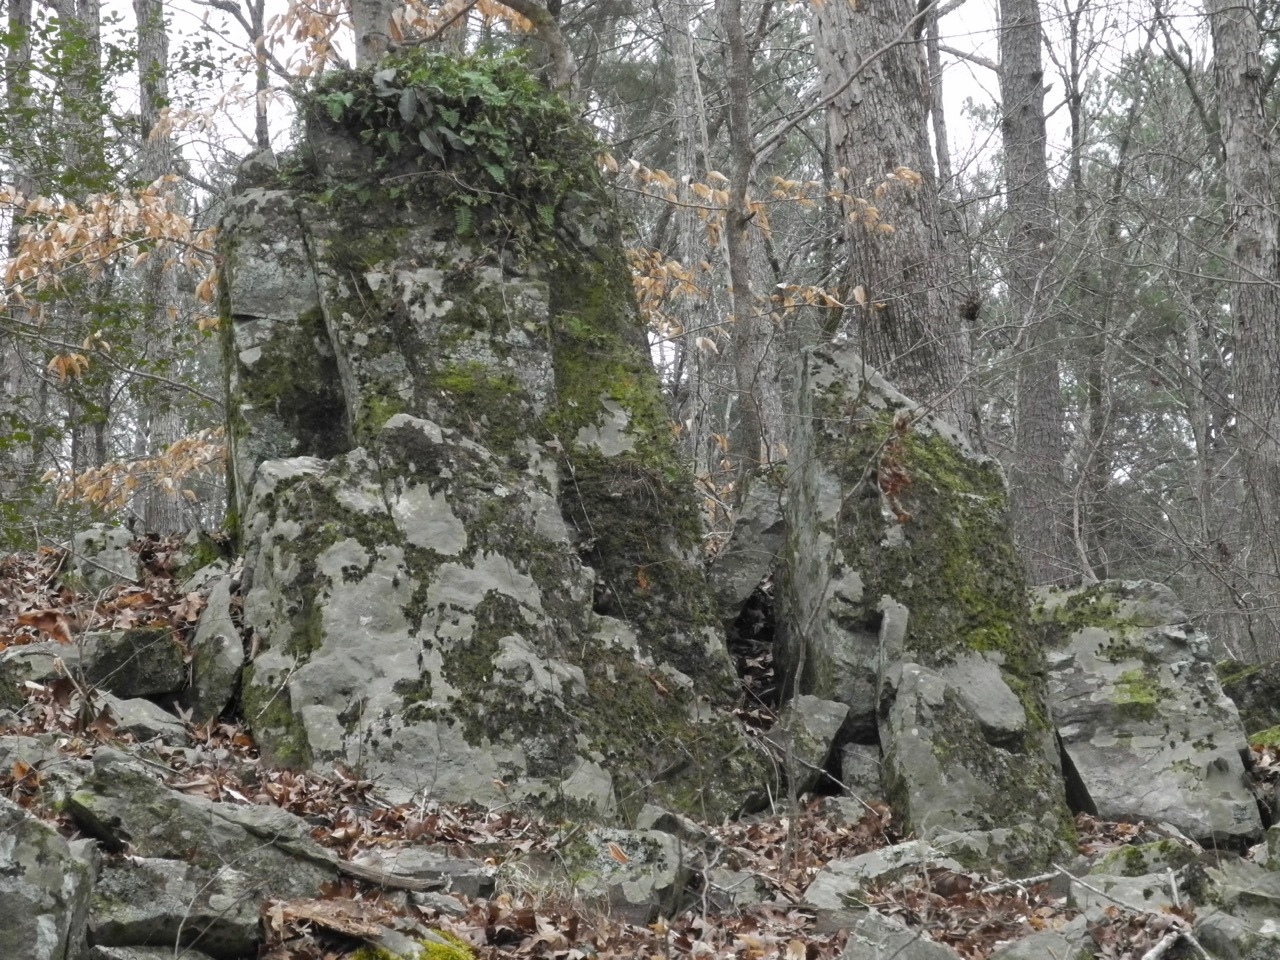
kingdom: Plantae
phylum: Tracheophyta
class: Magnoliopsida
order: Lamiales
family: Bignoniaceae
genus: Bignonia
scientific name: Bignonia capreolata
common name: Crossvine
